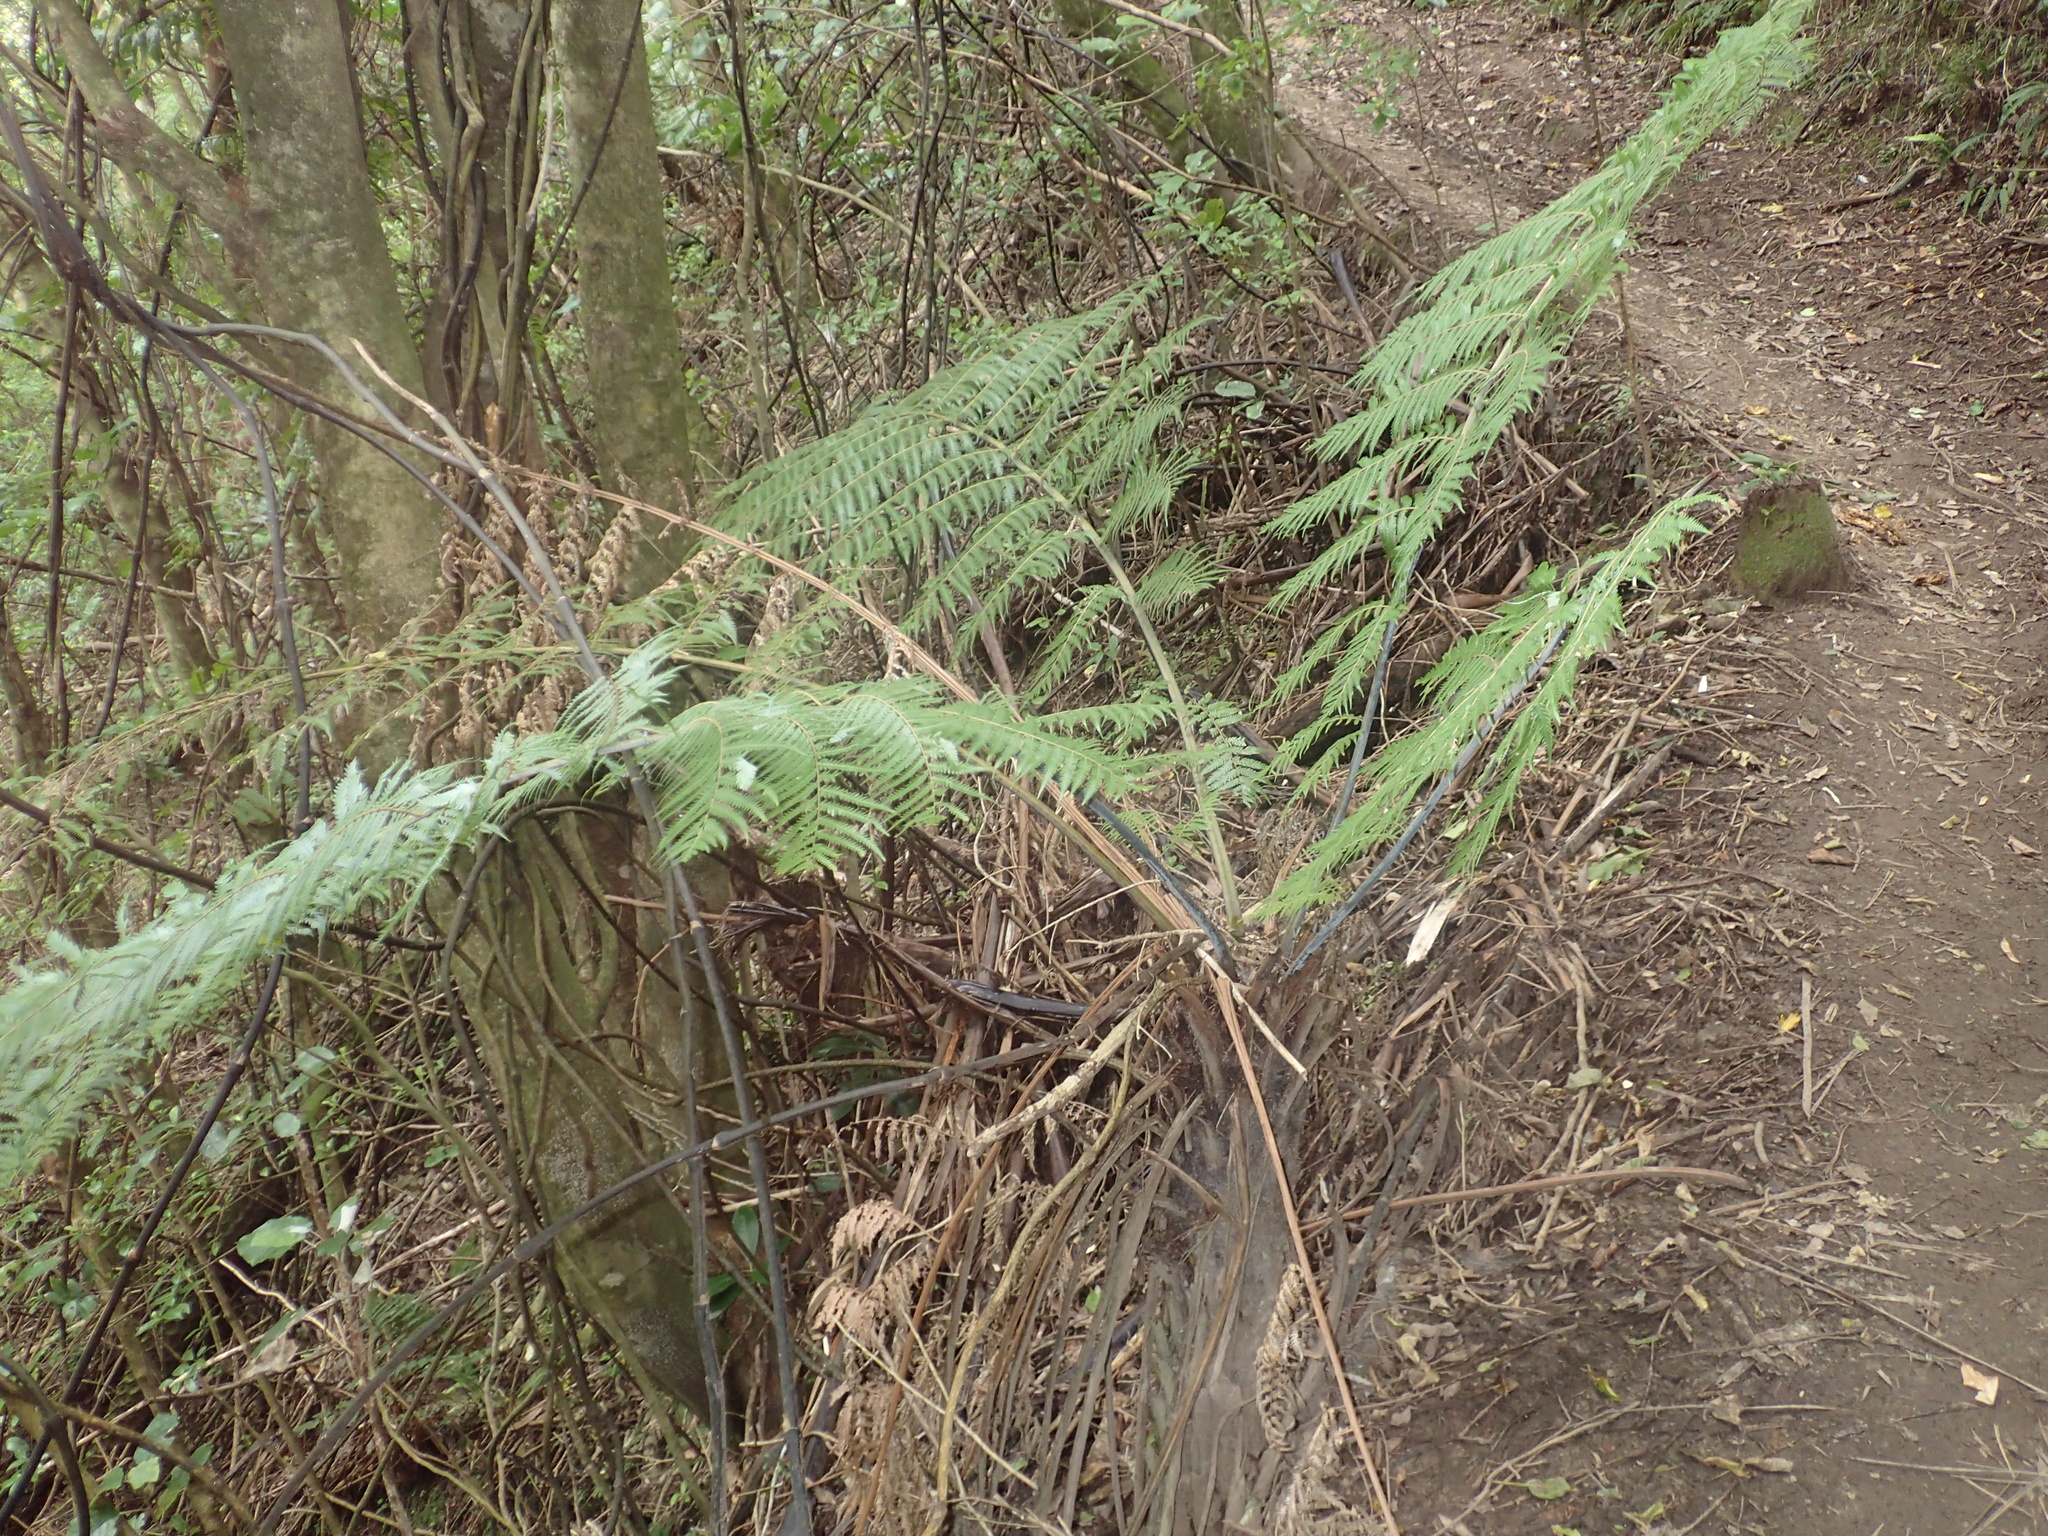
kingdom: Plantae
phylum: Tracheophyta
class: Polypodiopsida
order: Cyatheales
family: Cyatheaceae
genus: Alsophila
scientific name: Alsophila dealbata
